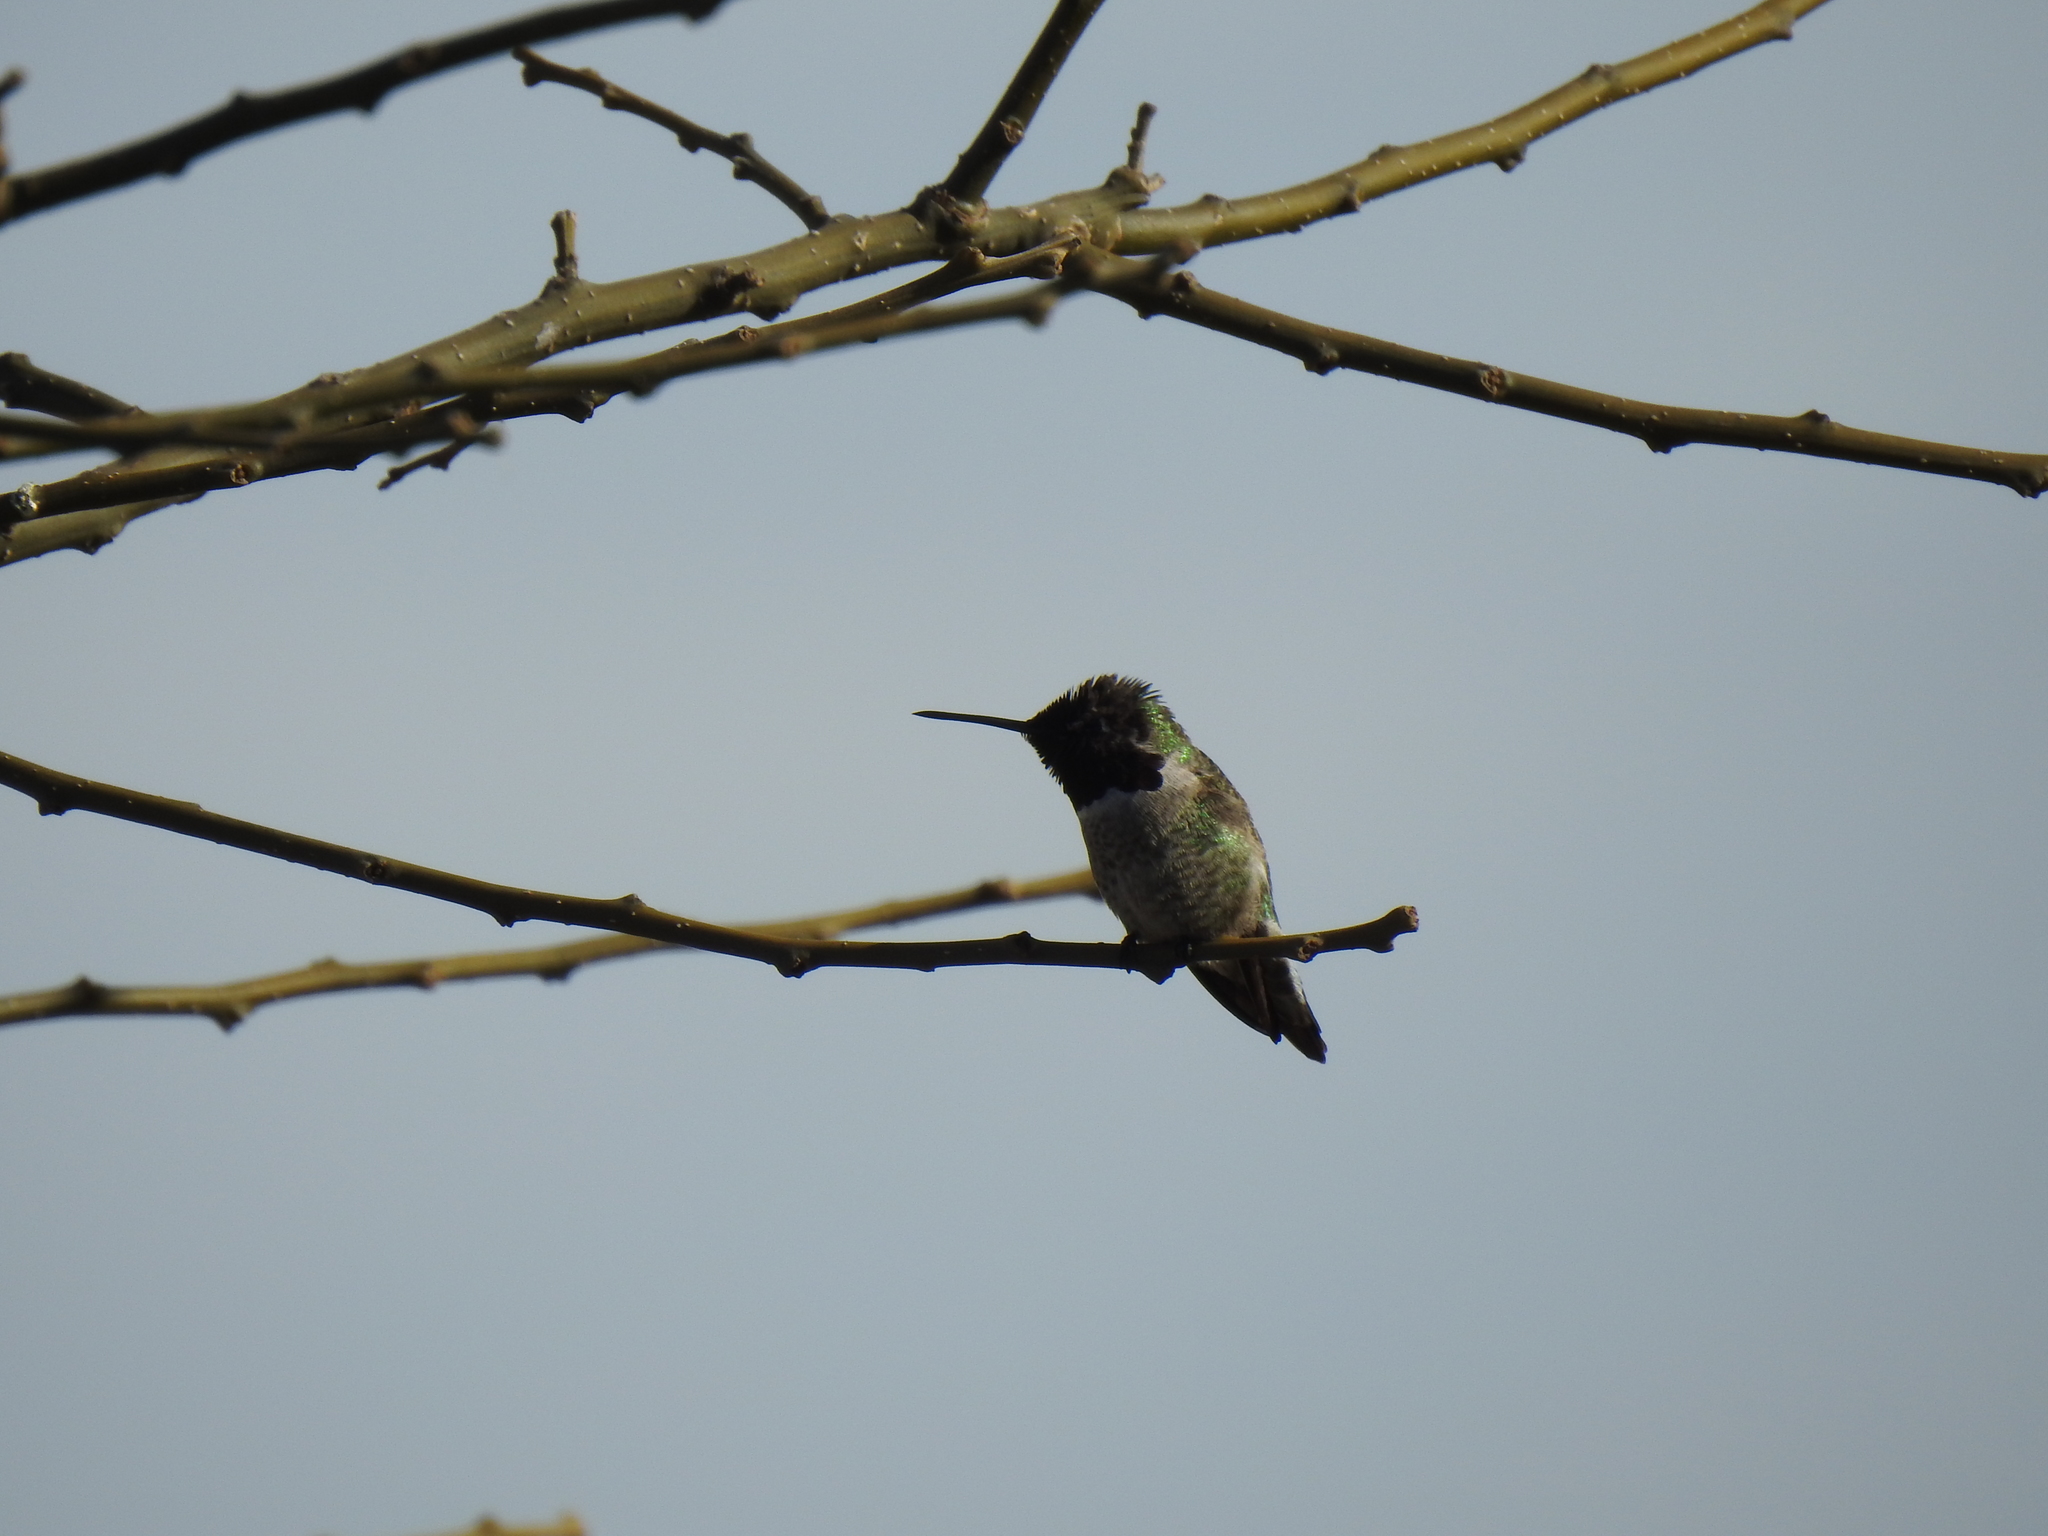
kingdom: Animalia
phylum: Chordata
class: Aves
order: Apodiformes
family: Trochilidae
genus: Calypte
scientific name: Calypte anna
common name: Anna's hummingbird
